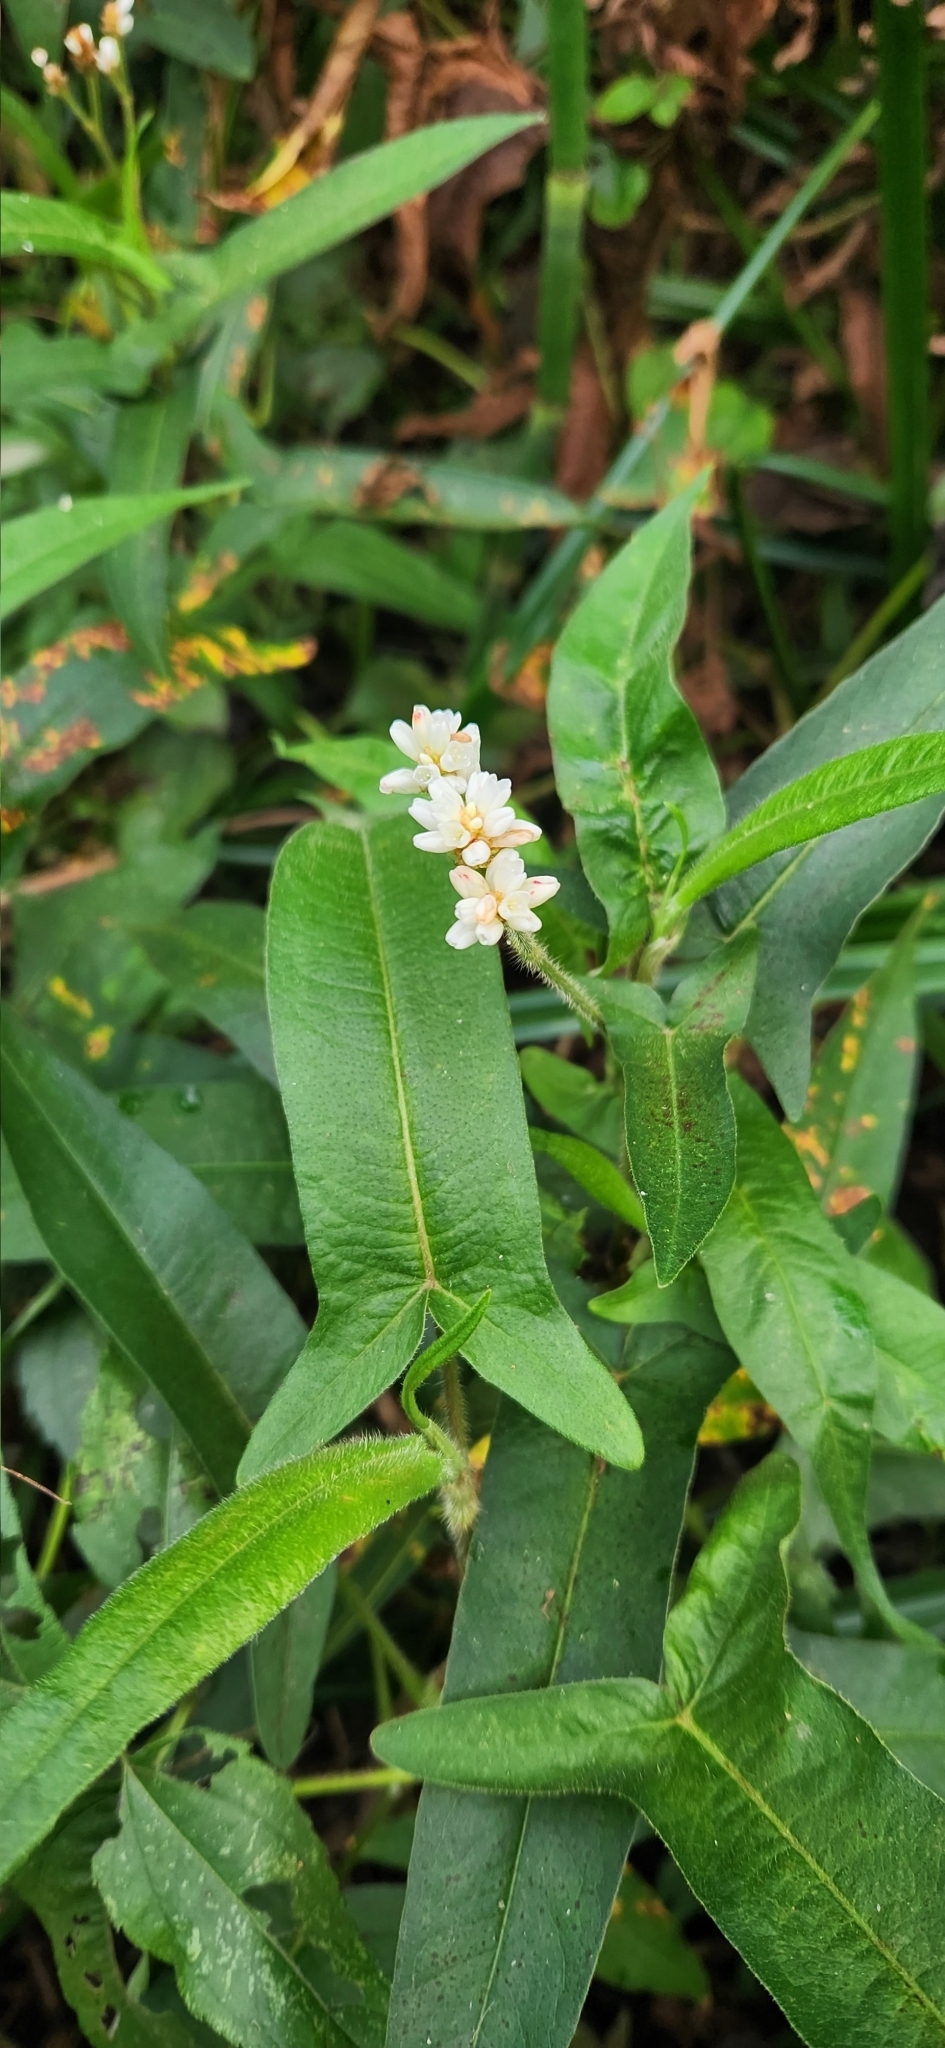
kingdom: Plantae
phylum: Tracheophyta
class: Magnoliopsida
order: Caryophyllales
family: Polygonaceae
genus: Persicaria
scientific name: Persicaria stelligera
